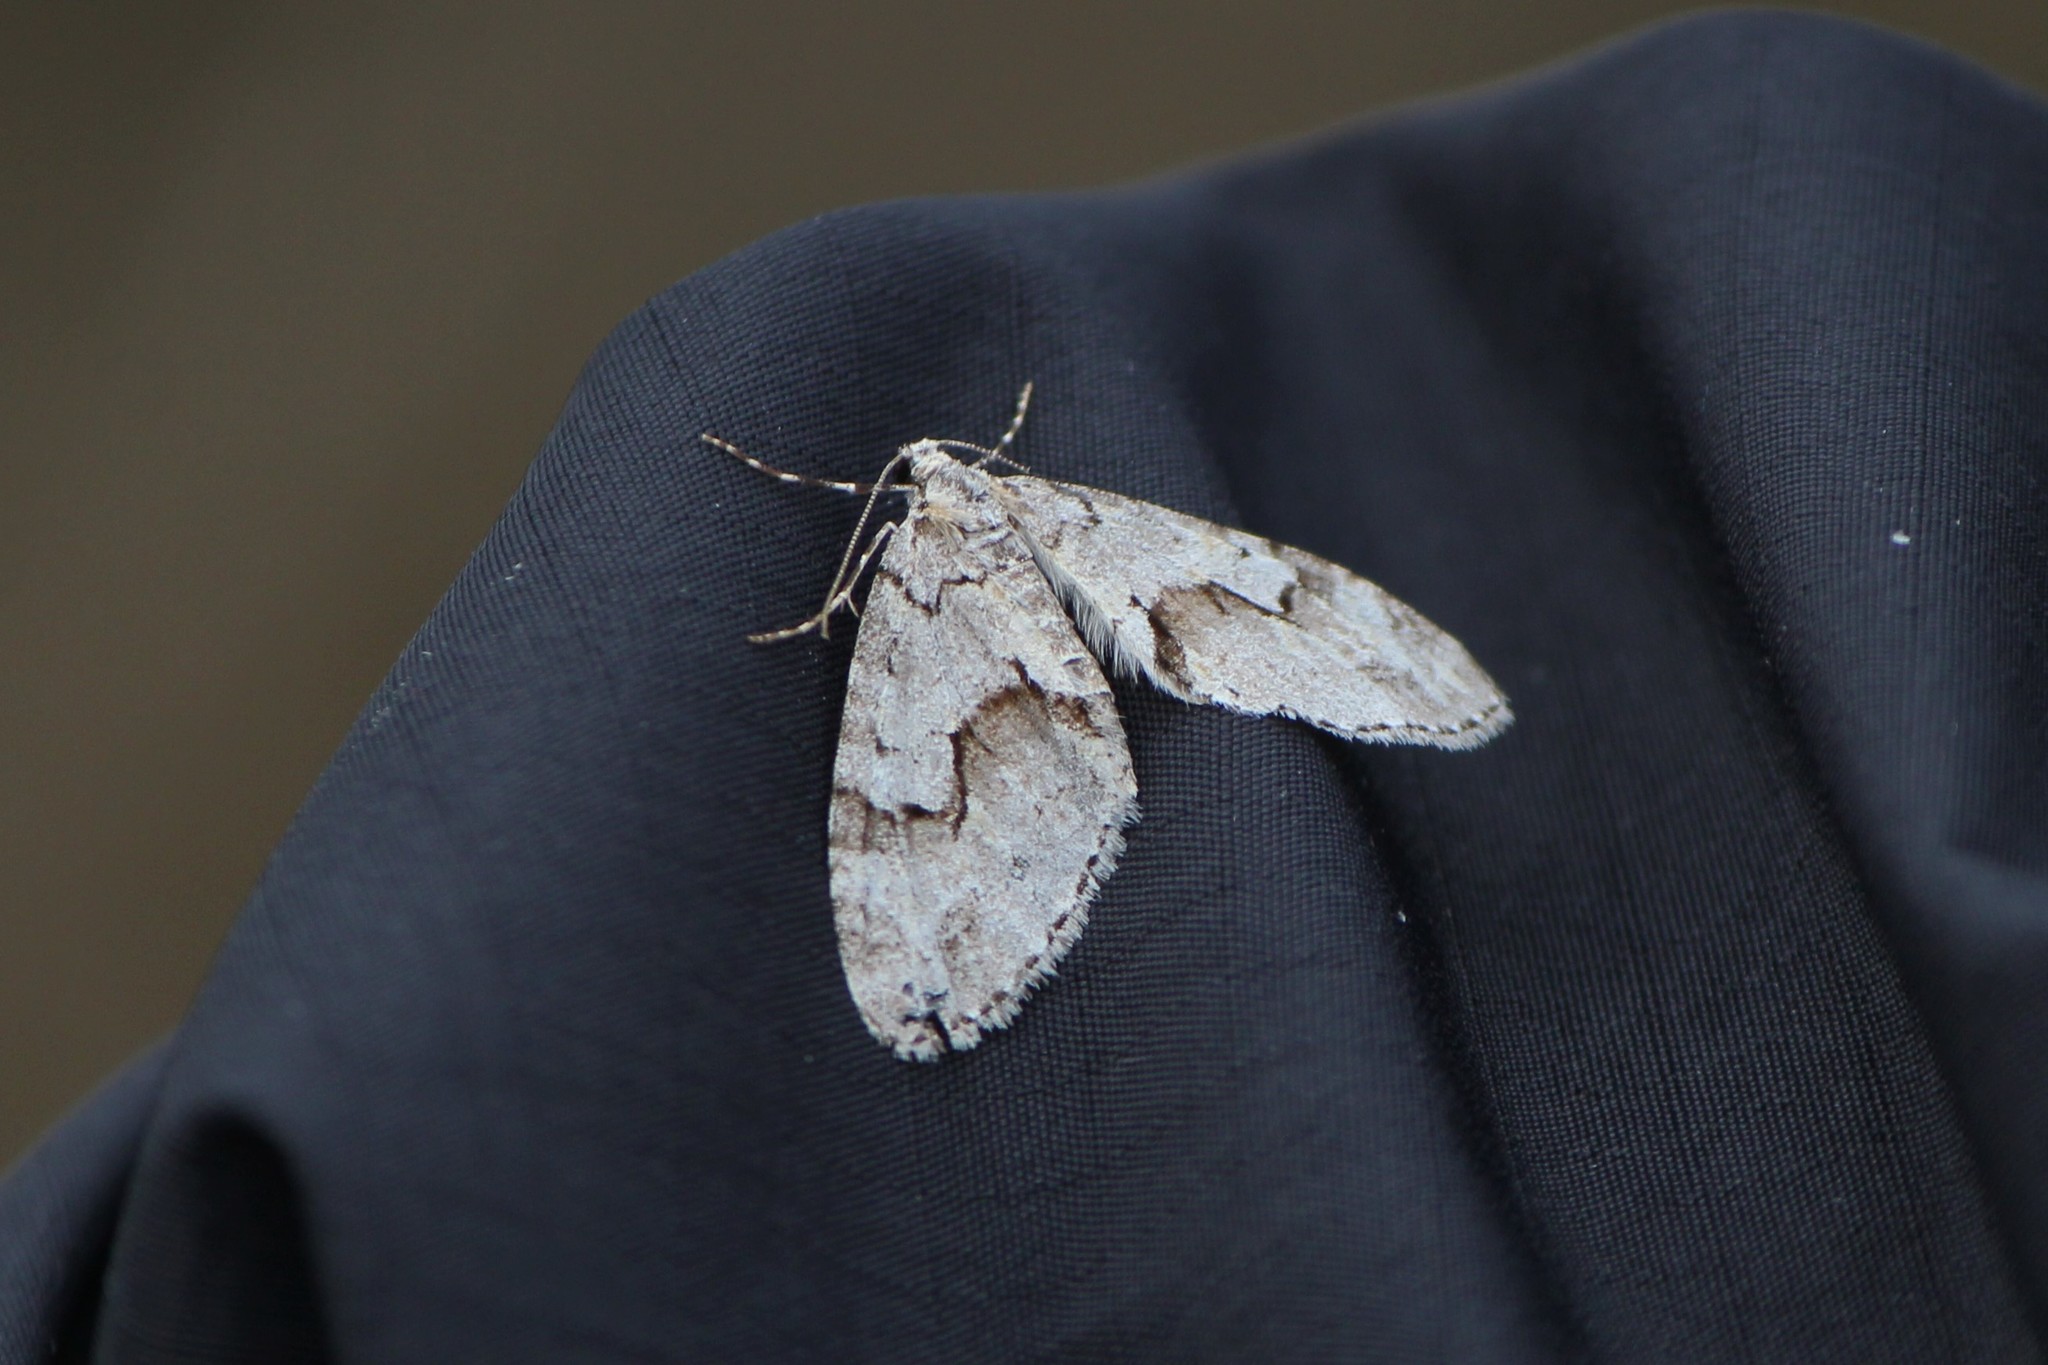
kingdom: Animalia
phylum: Arthropoda
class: Insecta
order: Lepidoptera
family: Geometridae
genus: Cladara
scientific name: Cladara limitaria
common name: Mottled gray carpet
